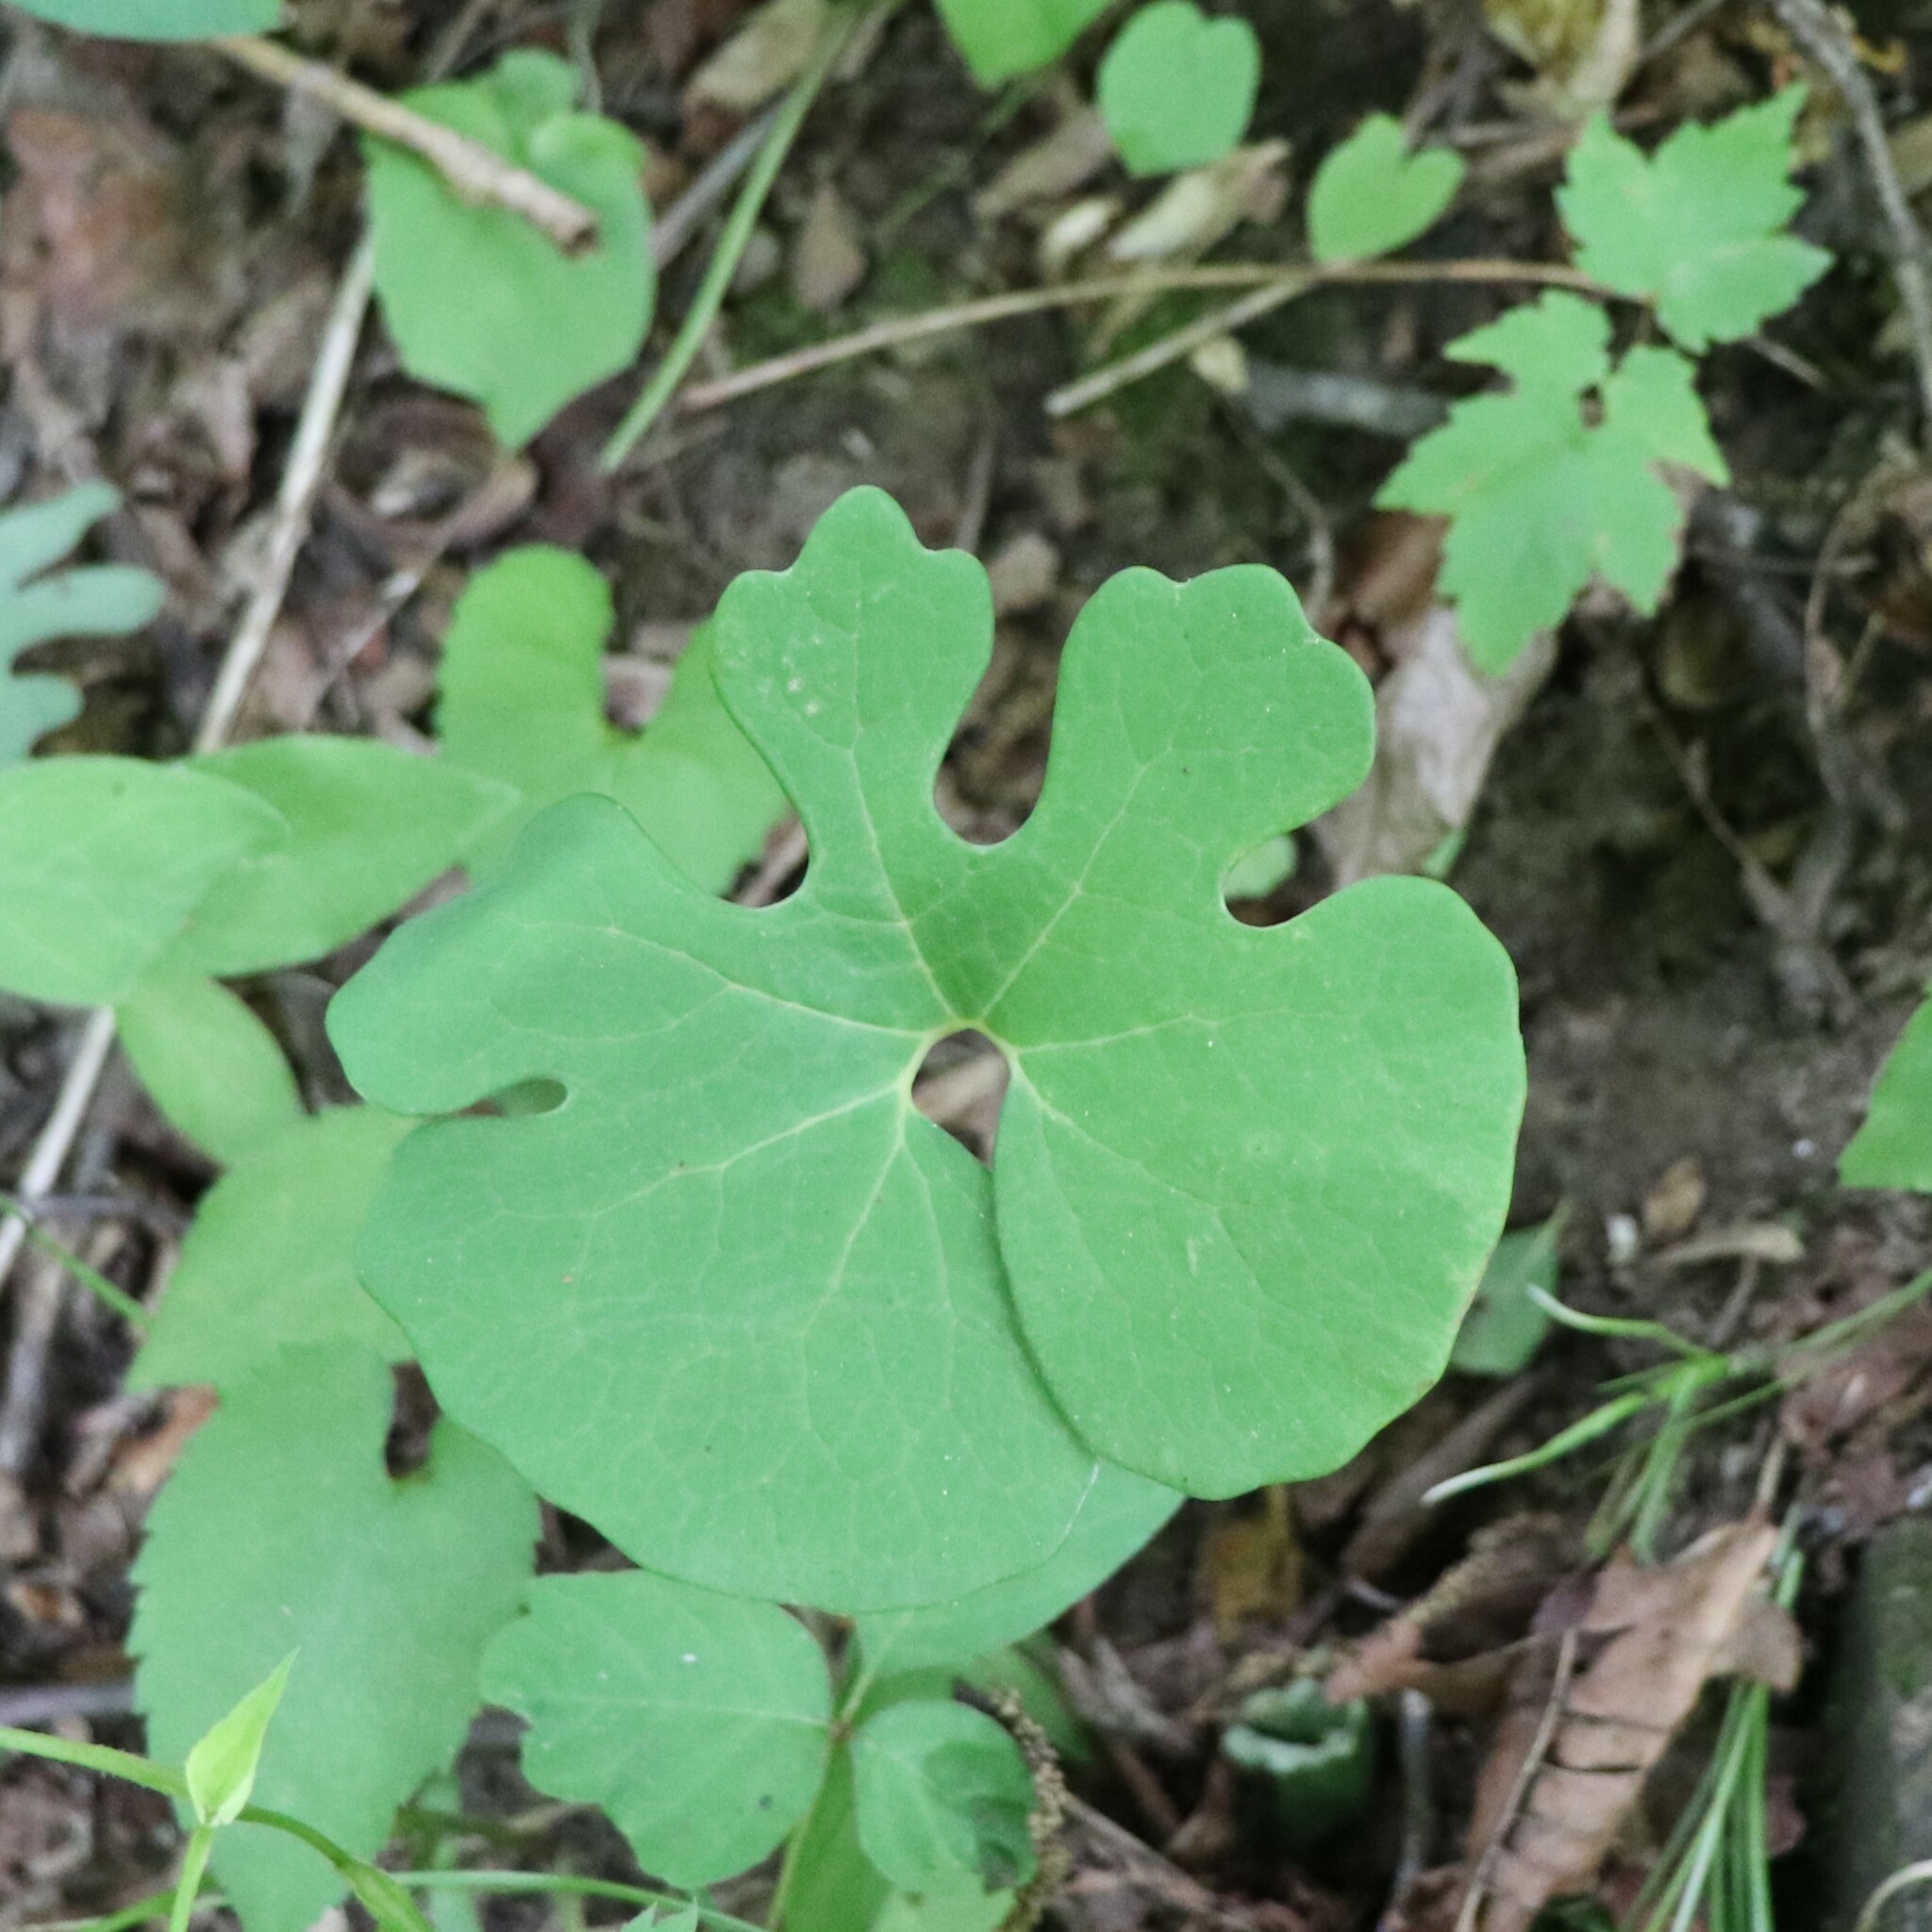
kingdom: Plantae
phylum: Tracheophyta
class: Magnoliopsida
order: Ranunculales
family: Papaveraceae
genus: Sanguinaria
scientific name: Sanguinaria canadensis
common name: Bloodroot
